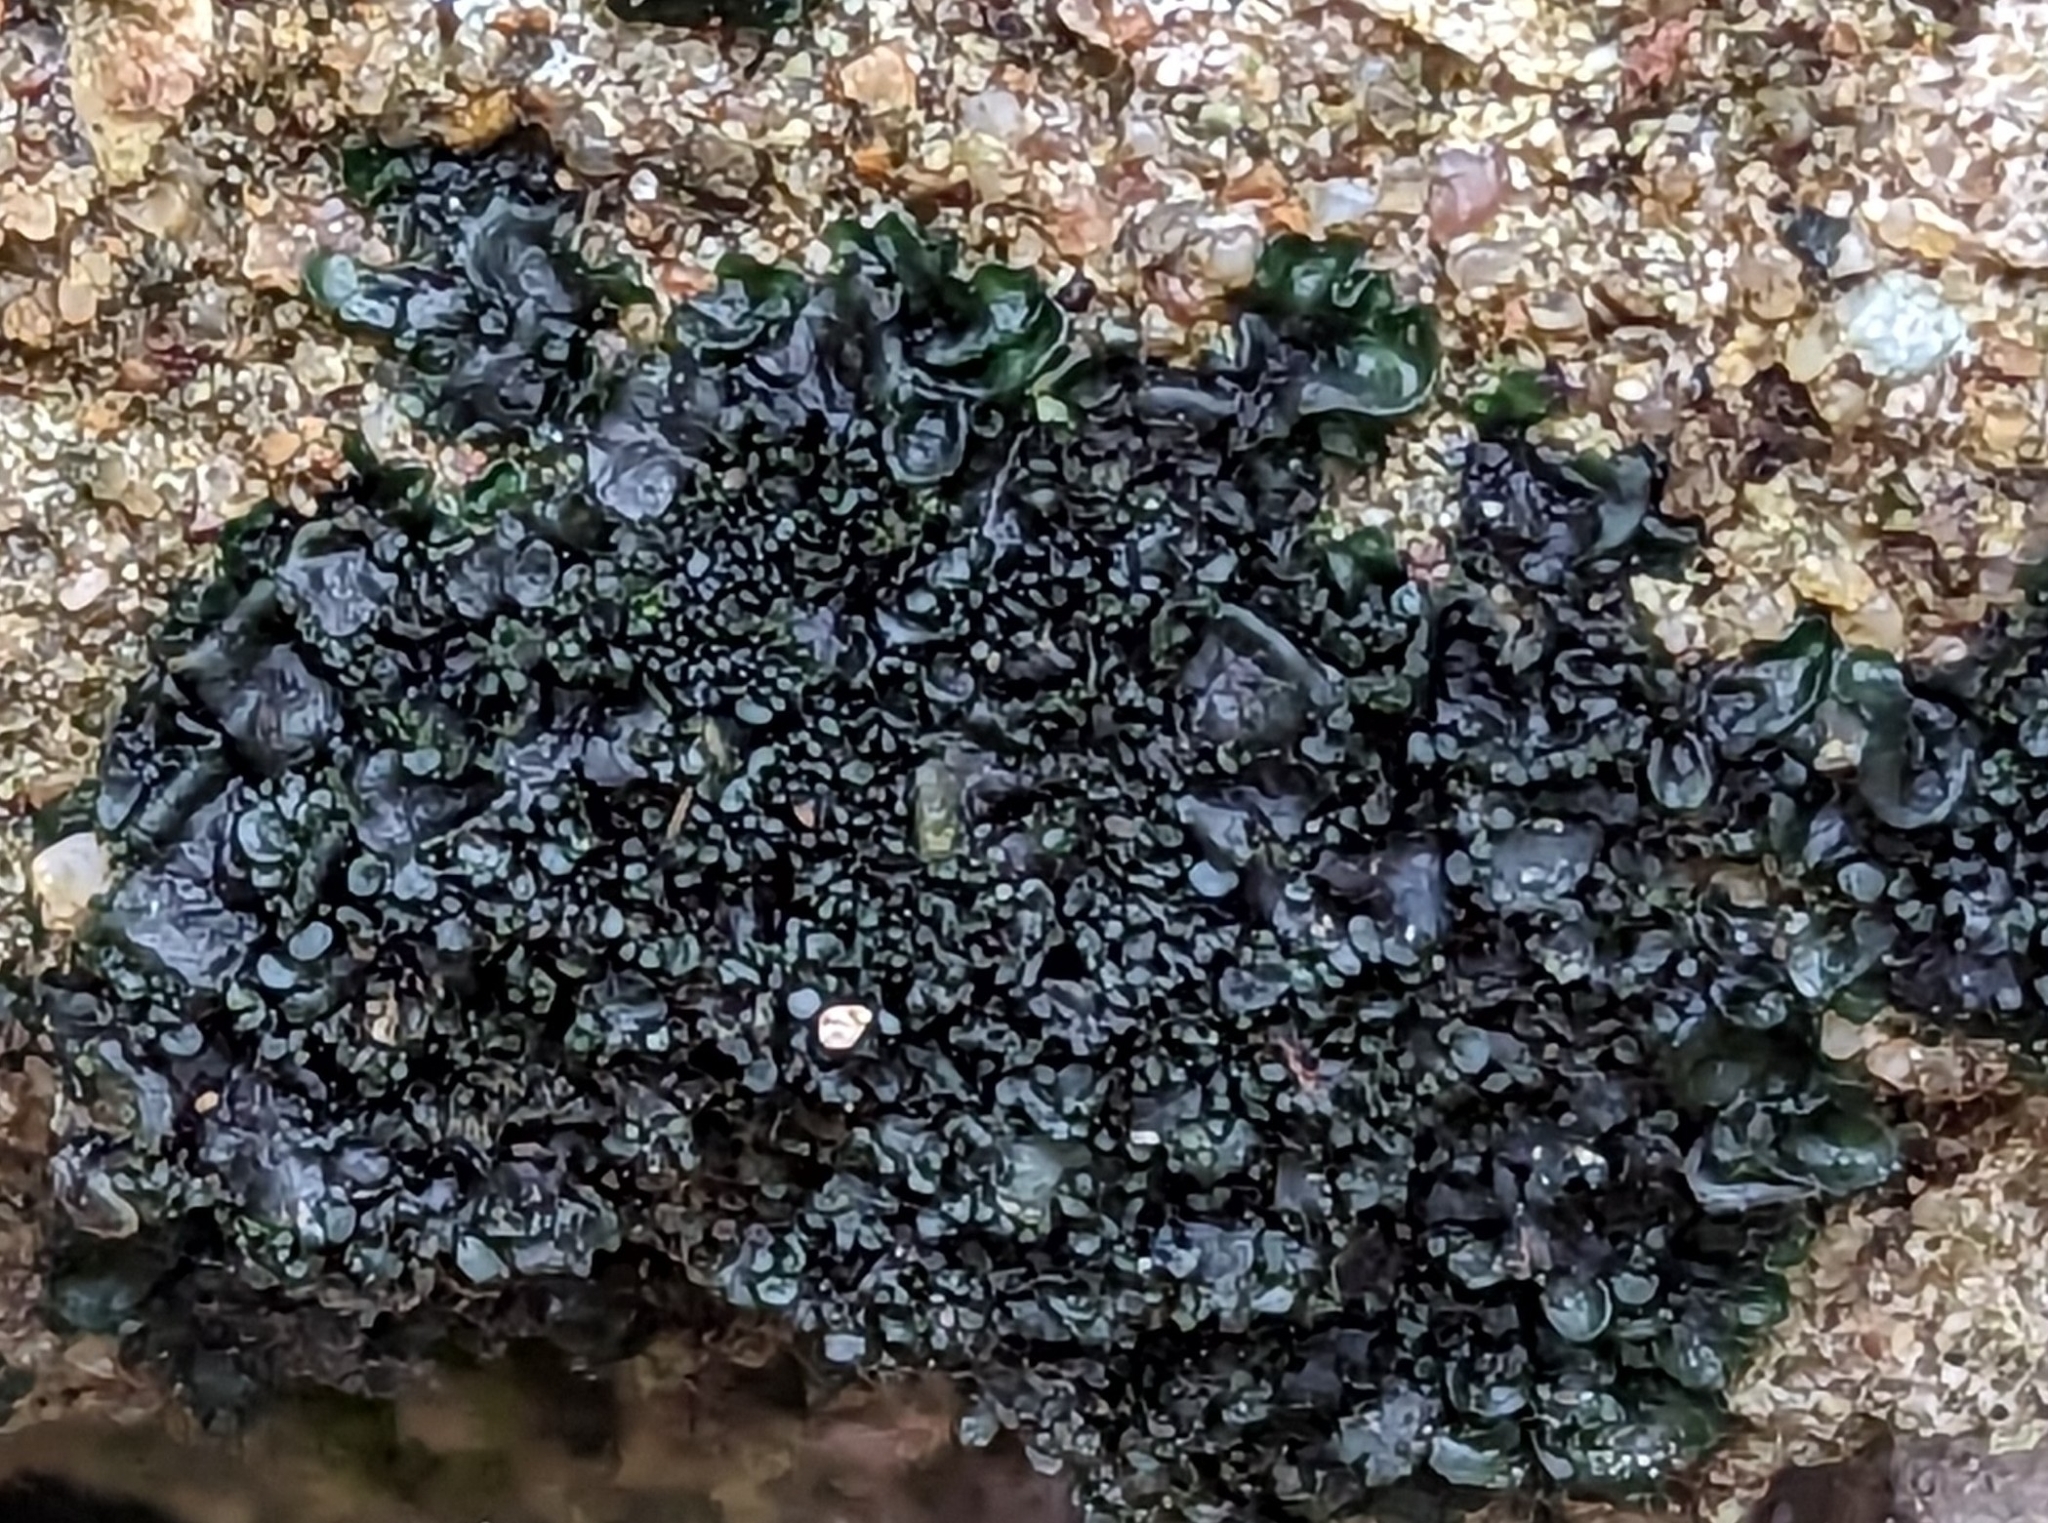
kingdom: Fungi
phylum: Ascomycota
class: Lecanoromycetes
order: Peltigerales
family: Collemataceae
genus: Blennothallia
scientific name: Blennothallia crispa
